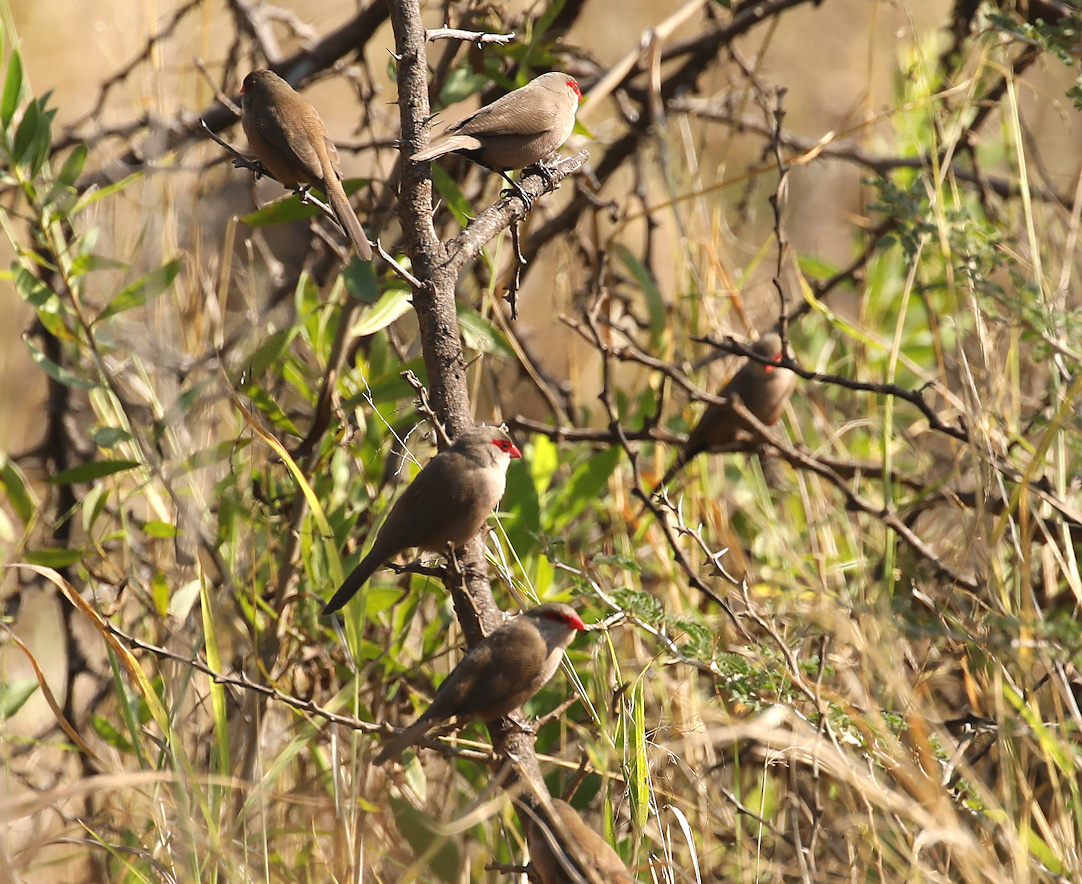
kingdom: Animalia
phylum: Chordata
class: Aves
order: Passeriformes
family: Estrildidae
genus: Estrilda
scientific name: Estrilda astrild
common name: Common waxbill
